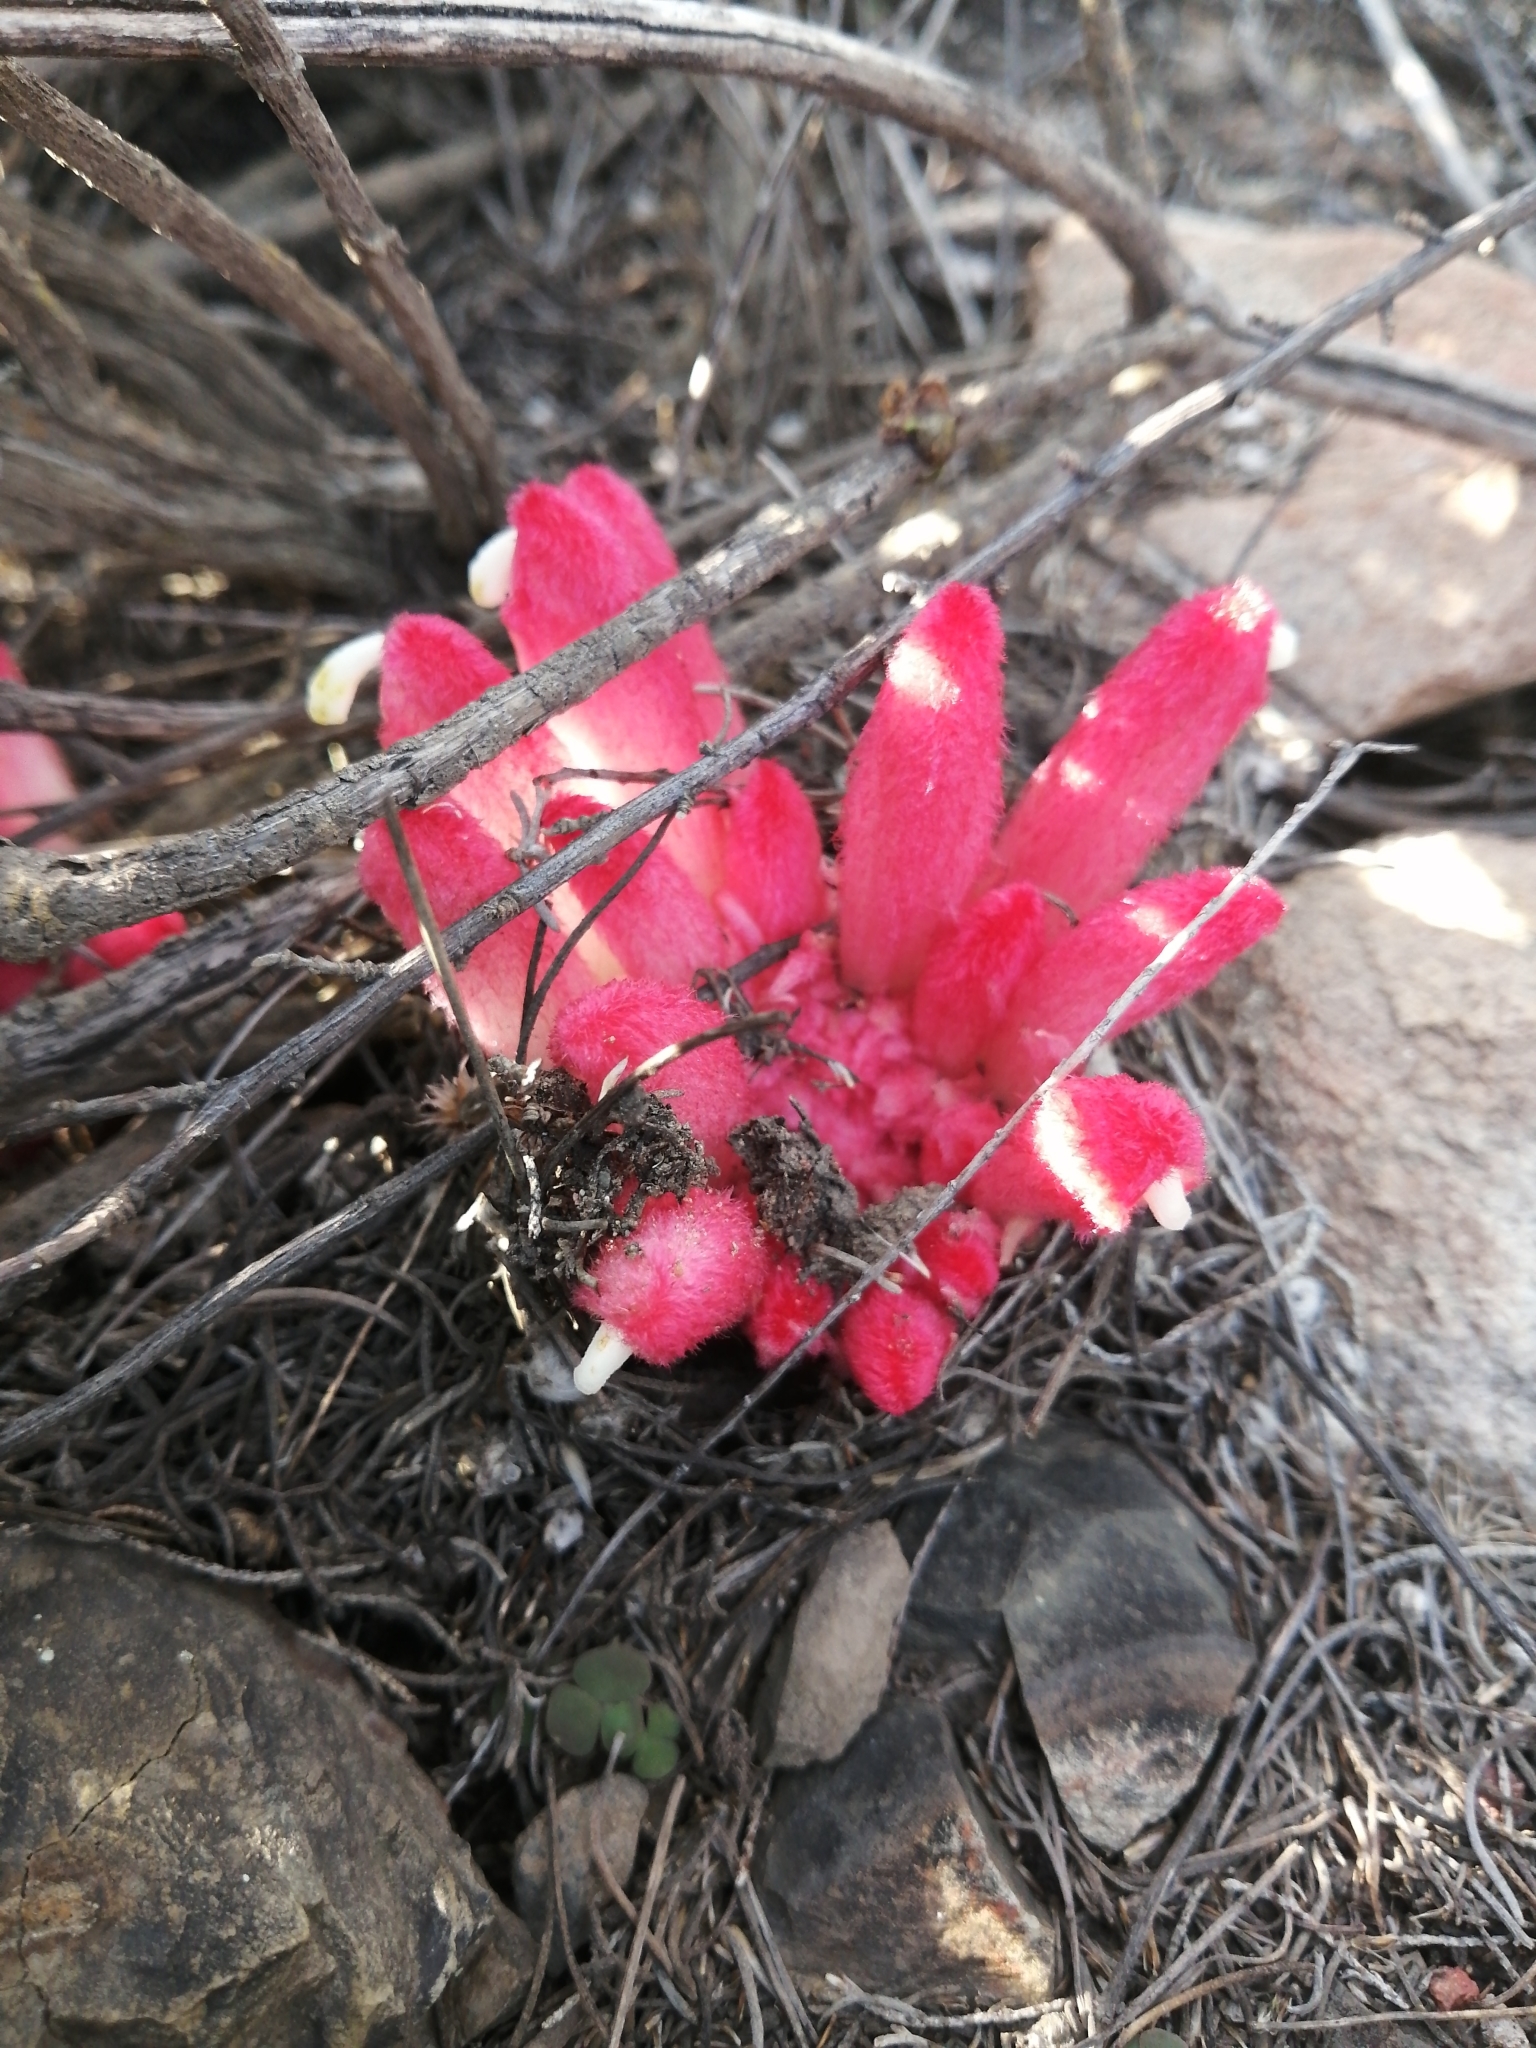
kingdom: Plantae
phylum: Tracheophyta
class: Magnoliopsida
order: Lamiales
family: Orobanchaceae
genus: Hyobanche
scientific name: Hyobanche sanguinea
